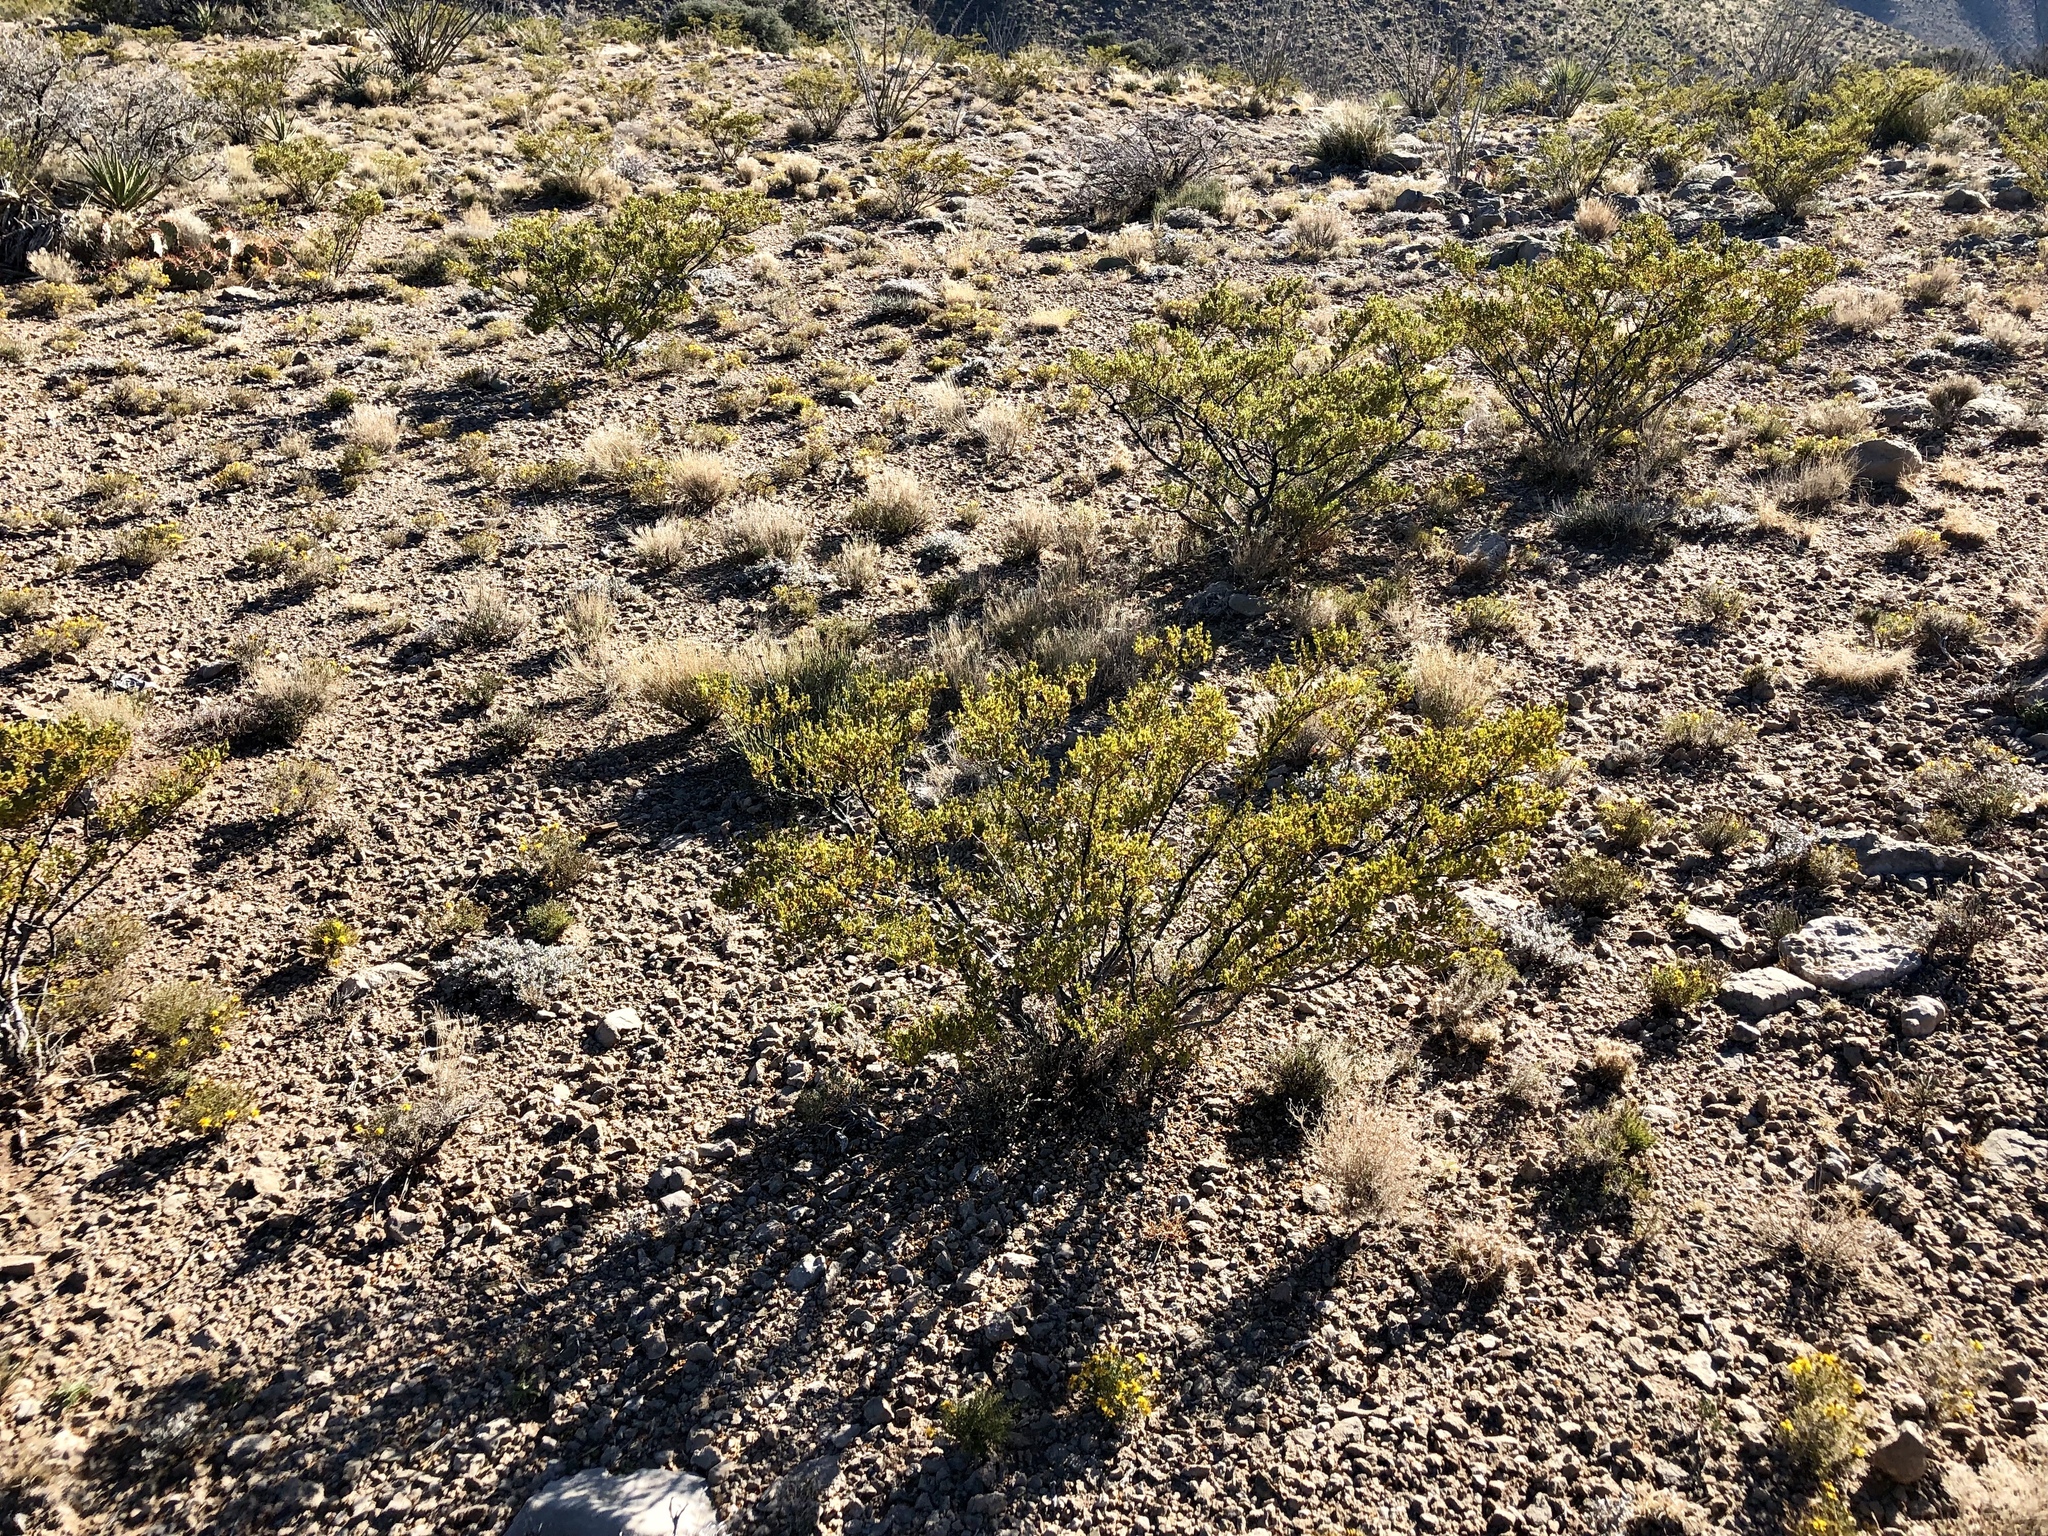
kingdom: Plantae
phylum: Tracheophyta
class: Magnoliopsida
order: Zygophyllales
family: Zygophyllaceae
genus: Larrea
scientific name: Larrea tridentata
